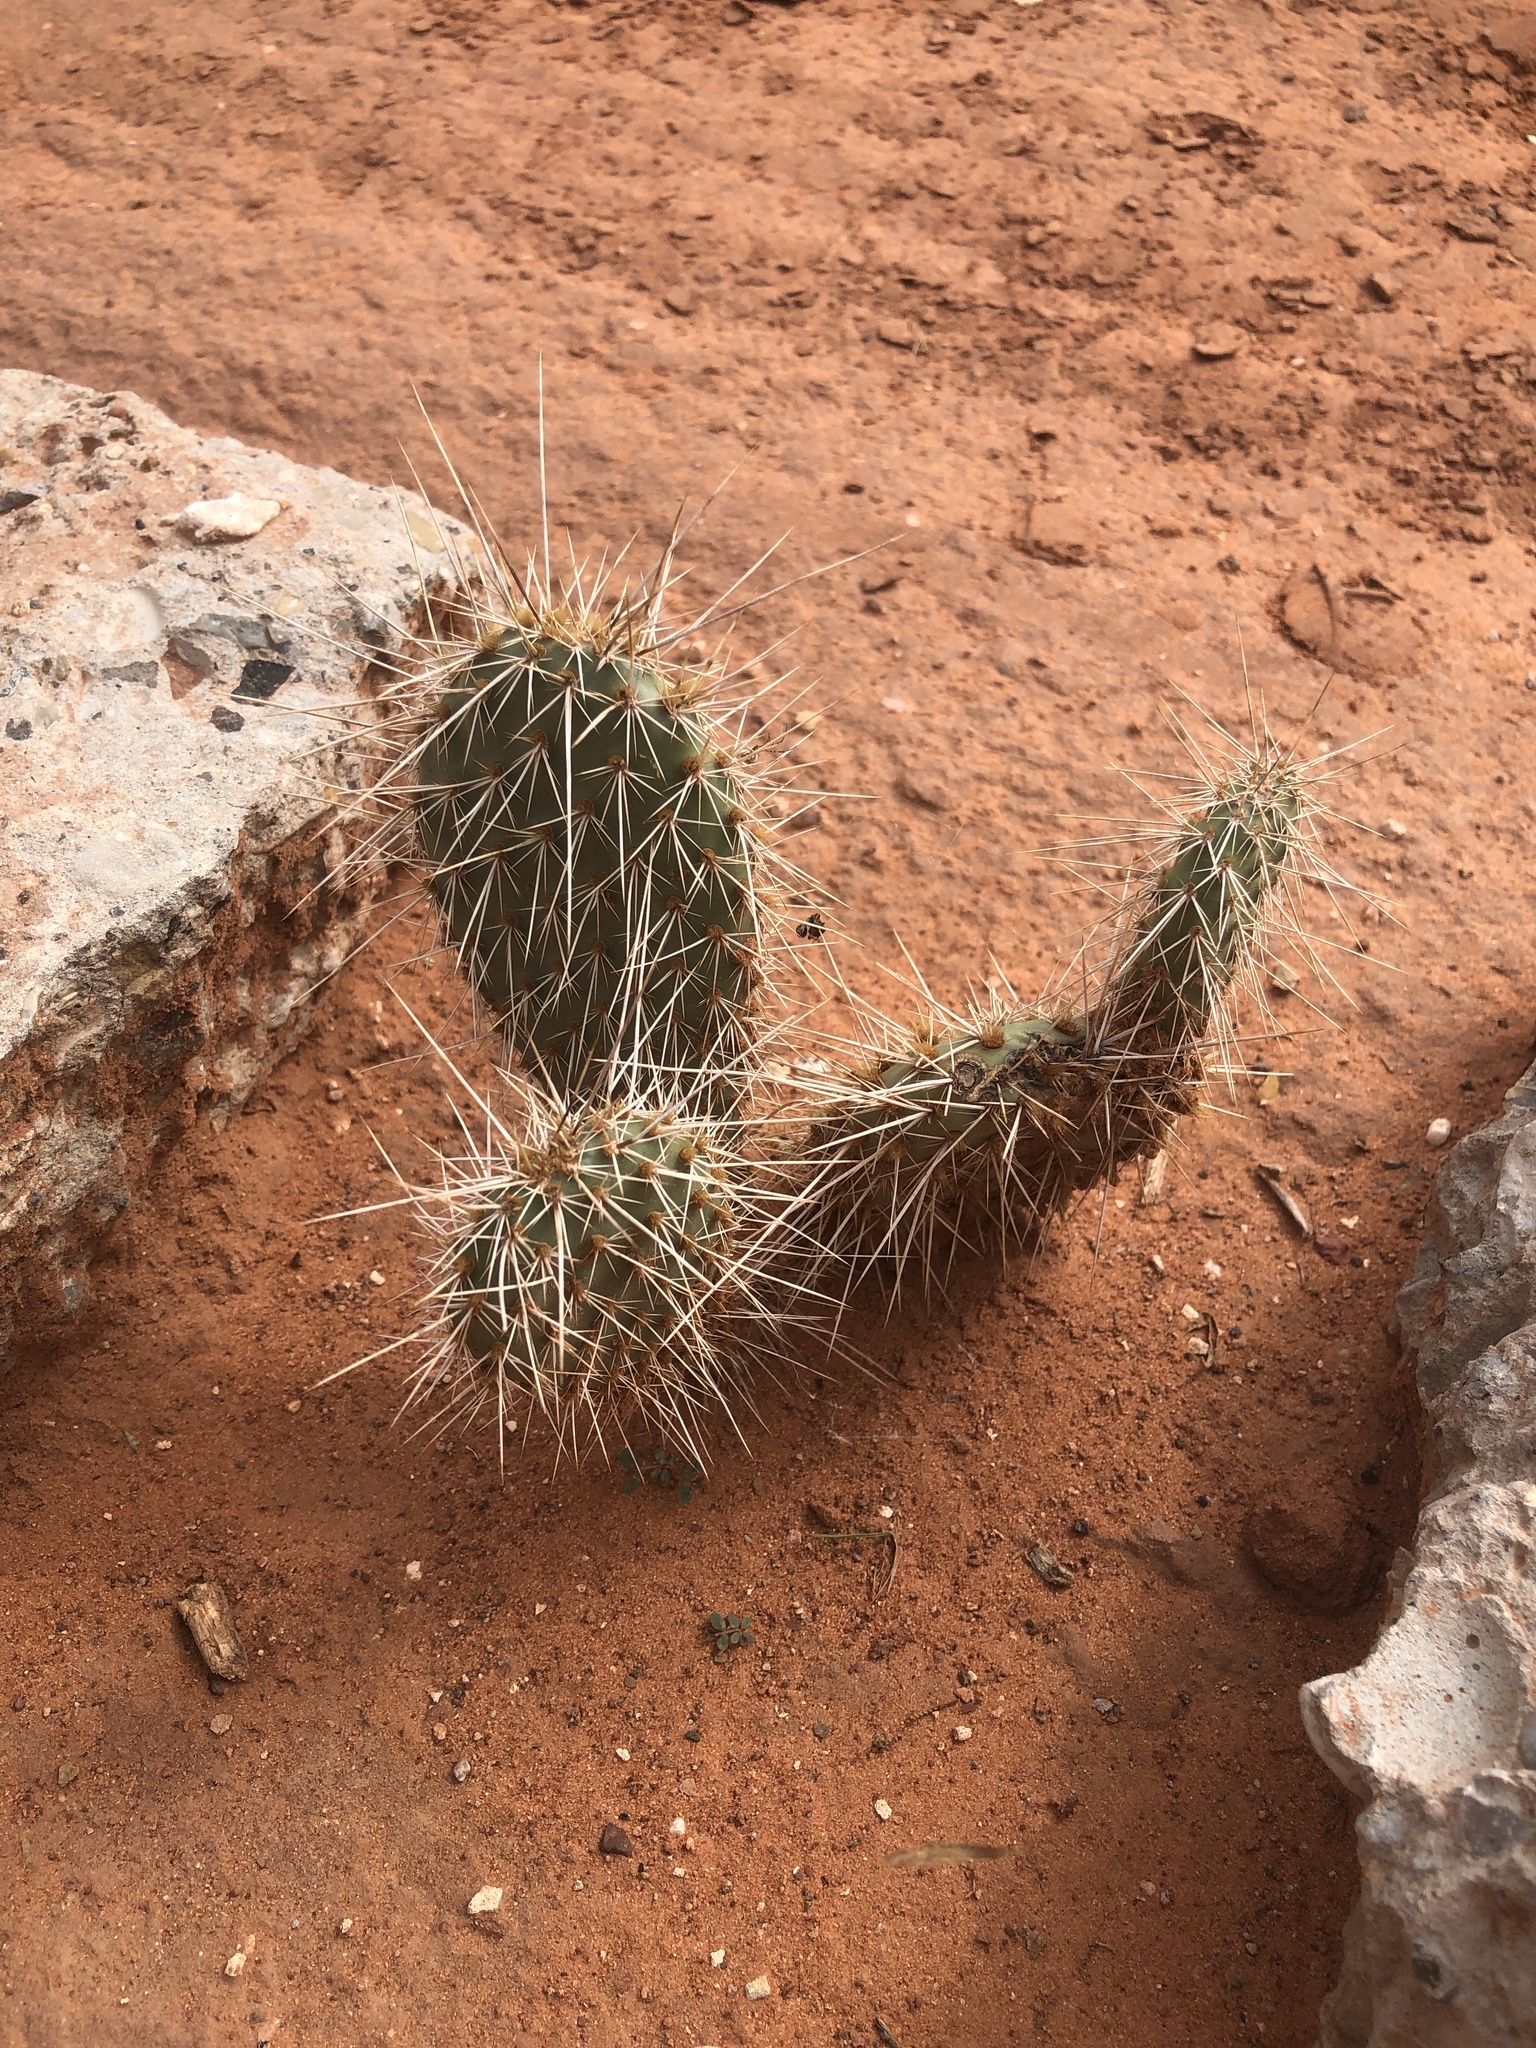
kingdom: Plantae
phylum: Tracheophyta
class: Magnoliopsida
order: Caryophyllales
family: Cactaceae
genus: Opuntia
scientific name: Opuntia polyacantha
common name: Plains prickly-pear
